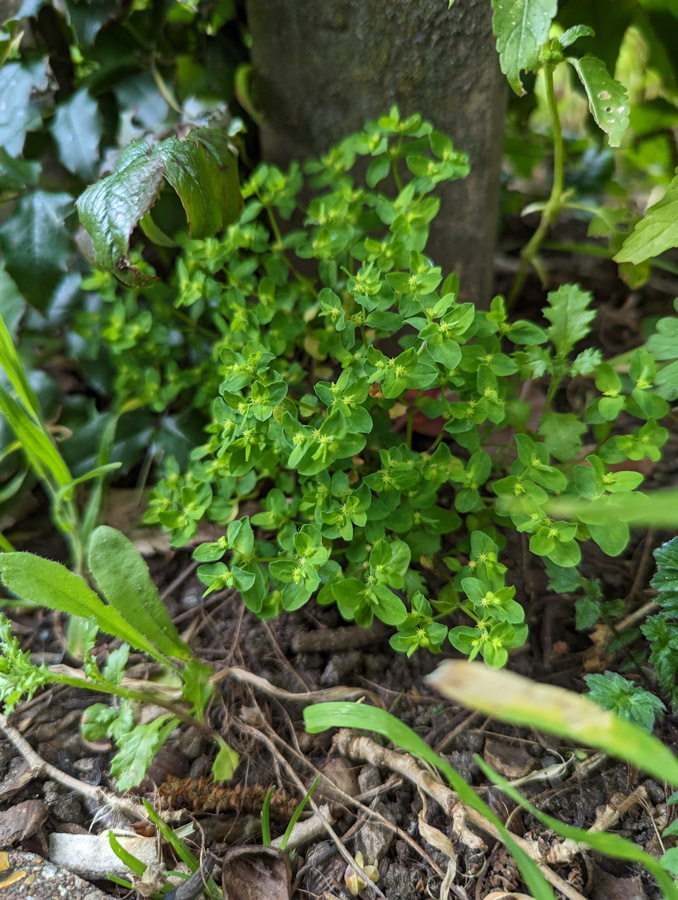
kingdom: Plantae
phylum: Tracheophyta
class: Magnoliopsida
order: Malpighiales
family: Euphorbiaceae
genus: Euphorbia
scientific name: Euphorbia peplus
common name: Petty spurge
